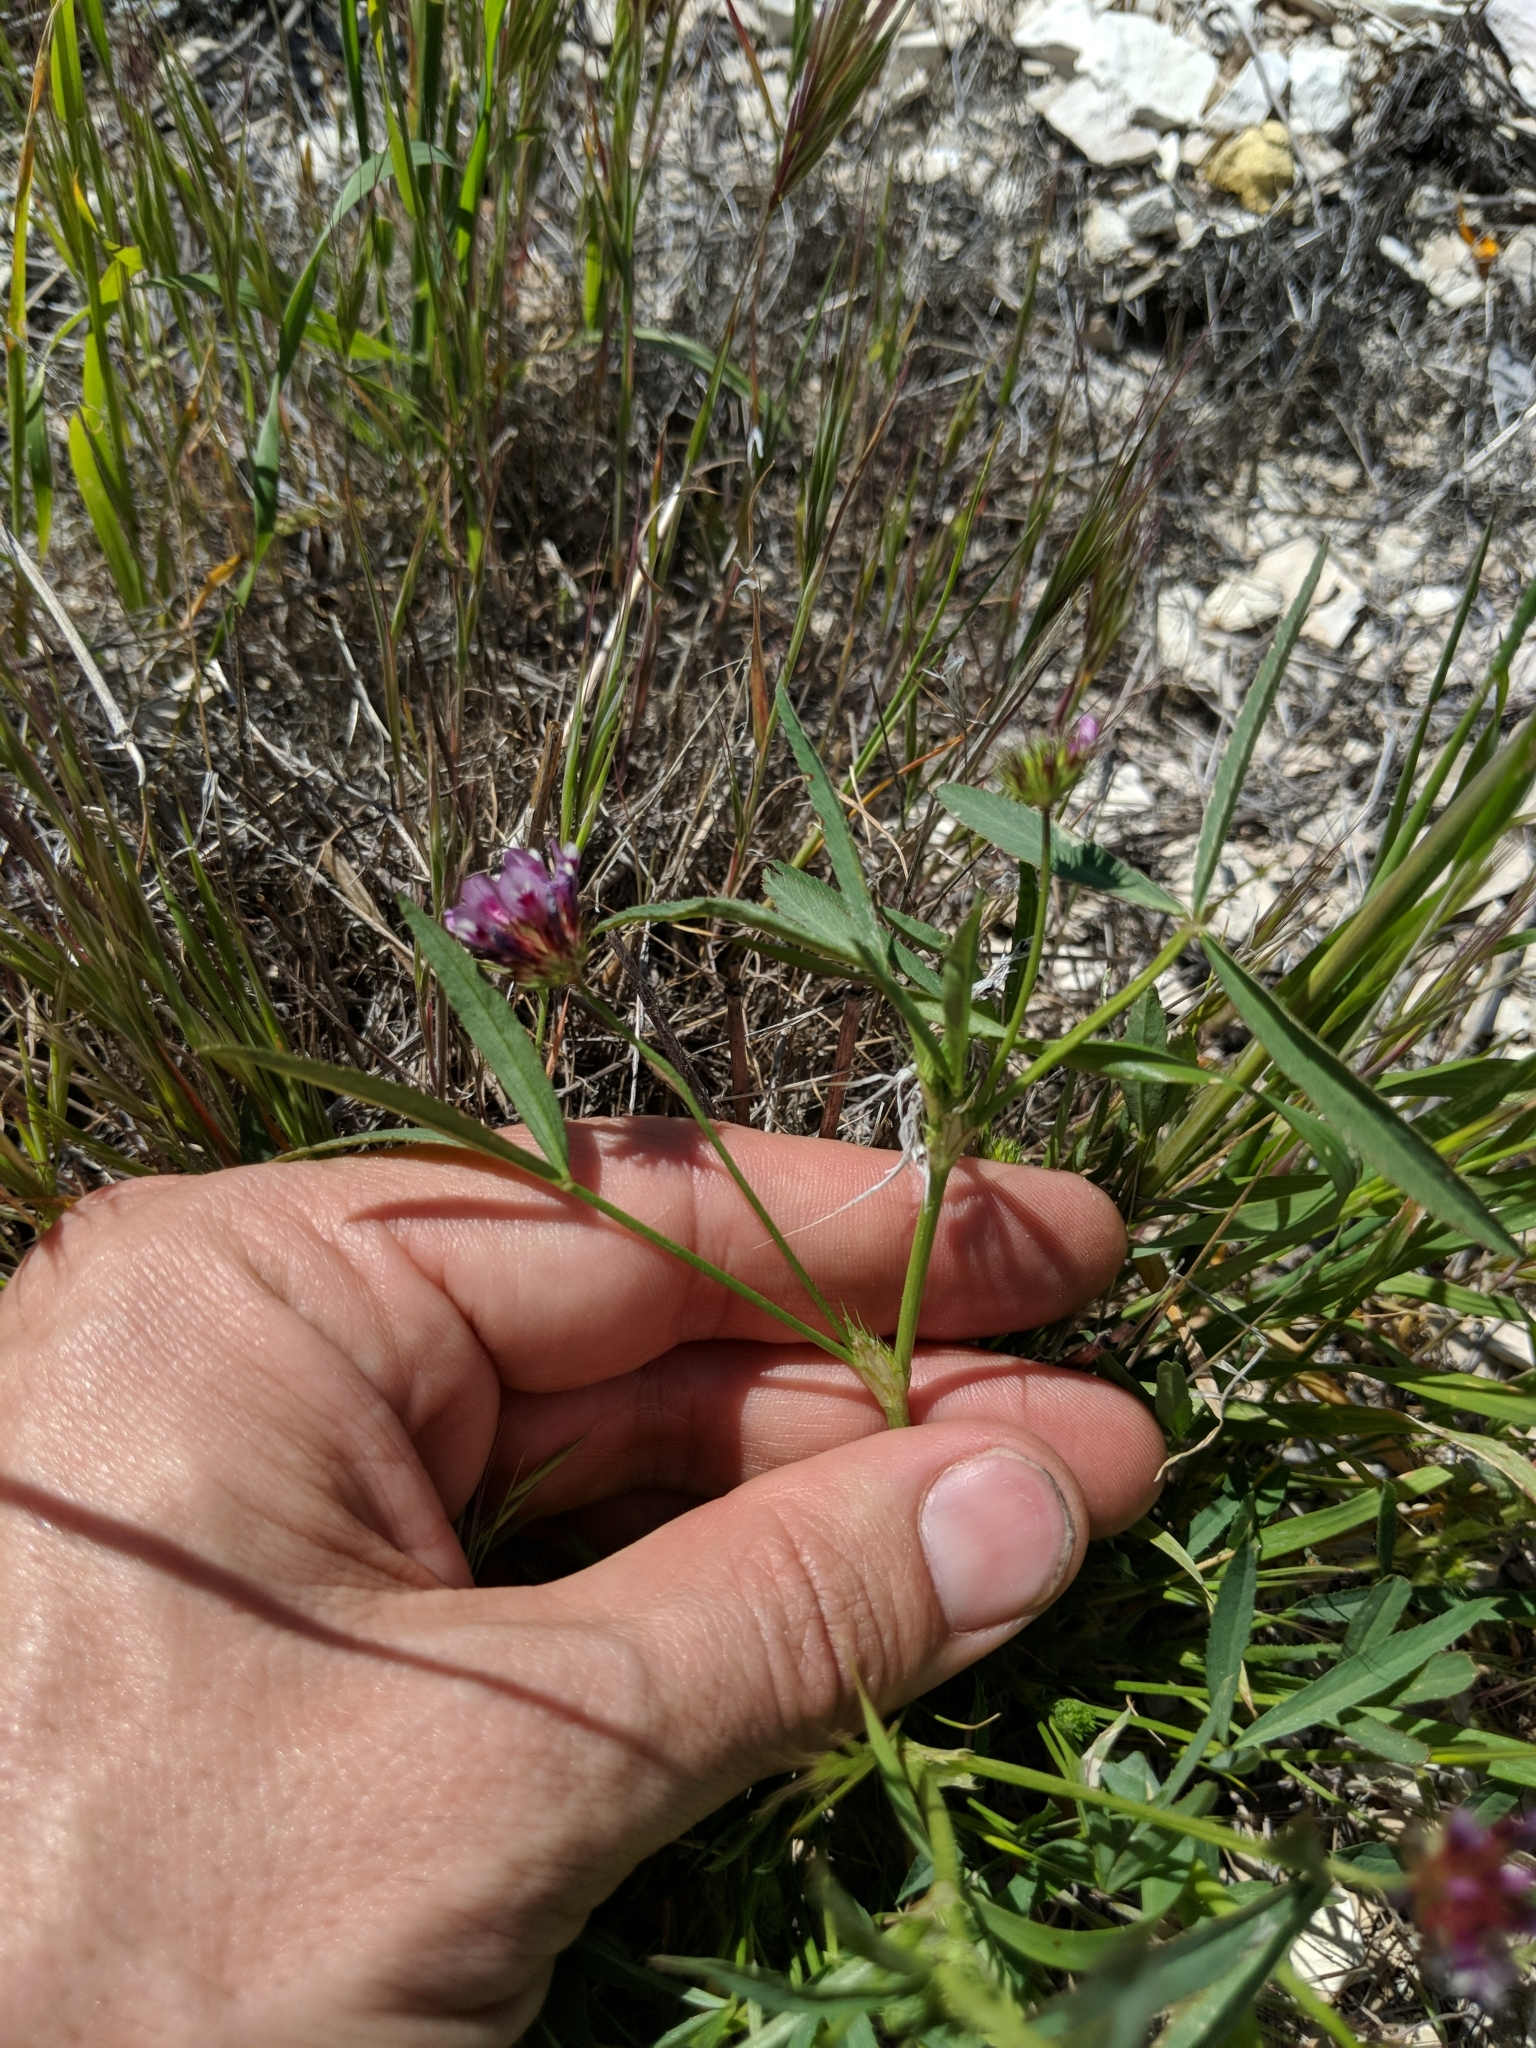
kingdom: Plantae
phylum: Tracheophyta
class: Magnoliopsida
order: Fabales
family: Fabaceae
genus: Trifolium
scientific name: Trifolium willdenovii
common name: Tomcat clover
